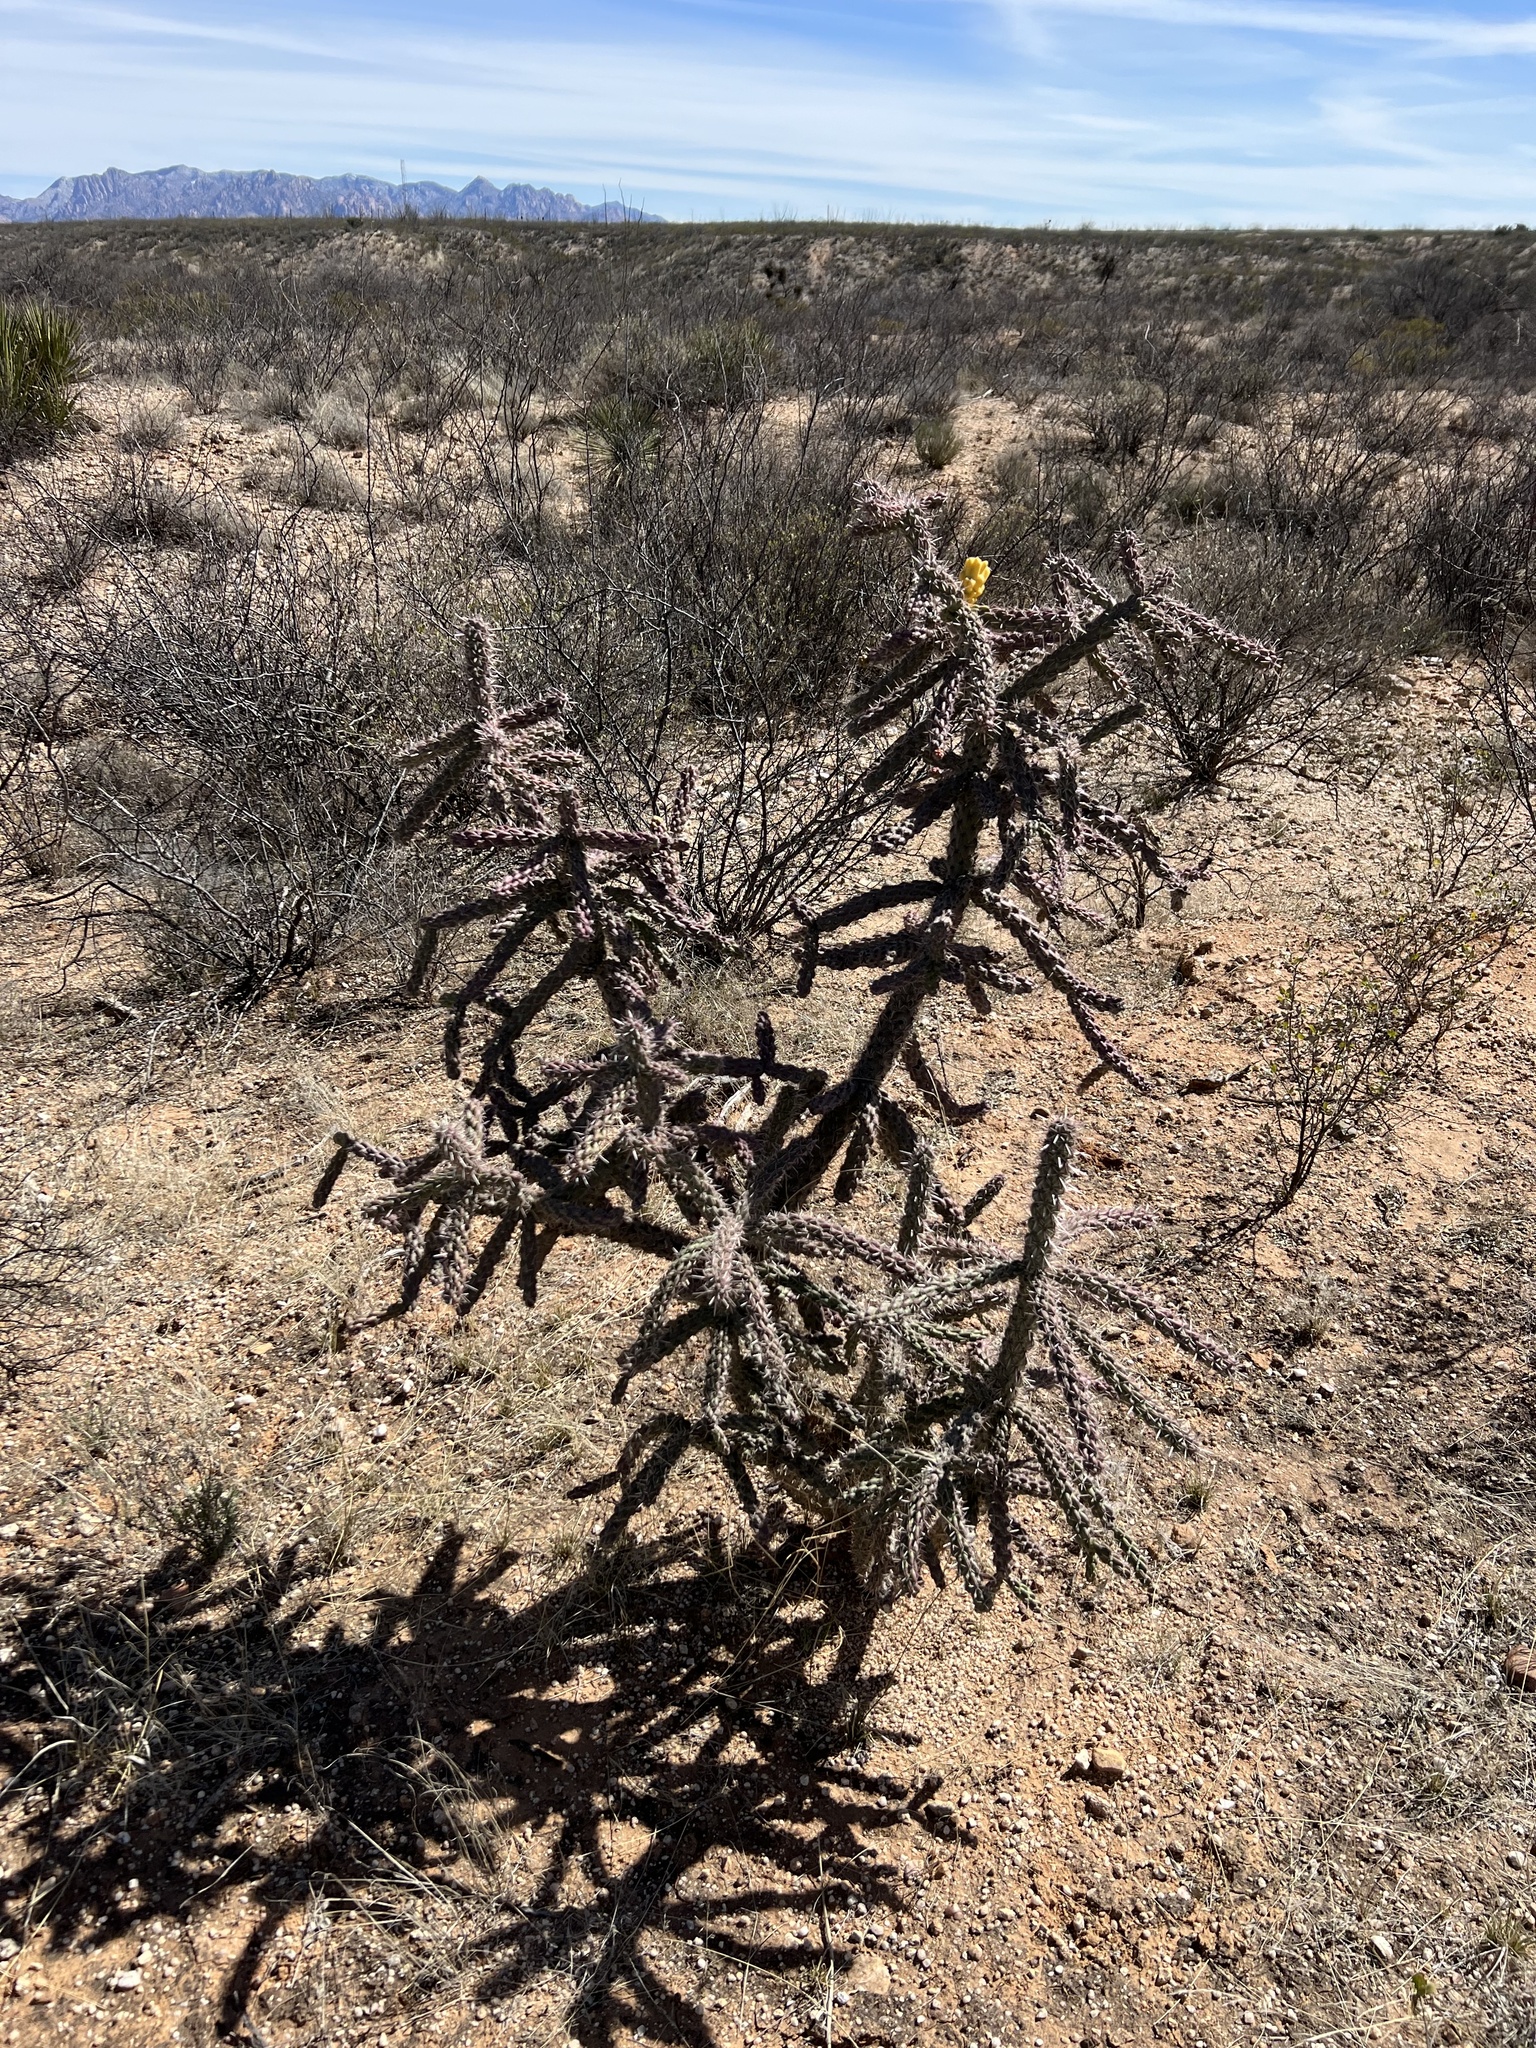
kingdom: Plantae
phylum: Tracheophyta
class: Magnoliopsida
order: Caryophyllales
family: Cactaceae
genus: Cylindropuntia
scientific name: Cylindropuntia imbricata
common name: Candelabrum cactus
